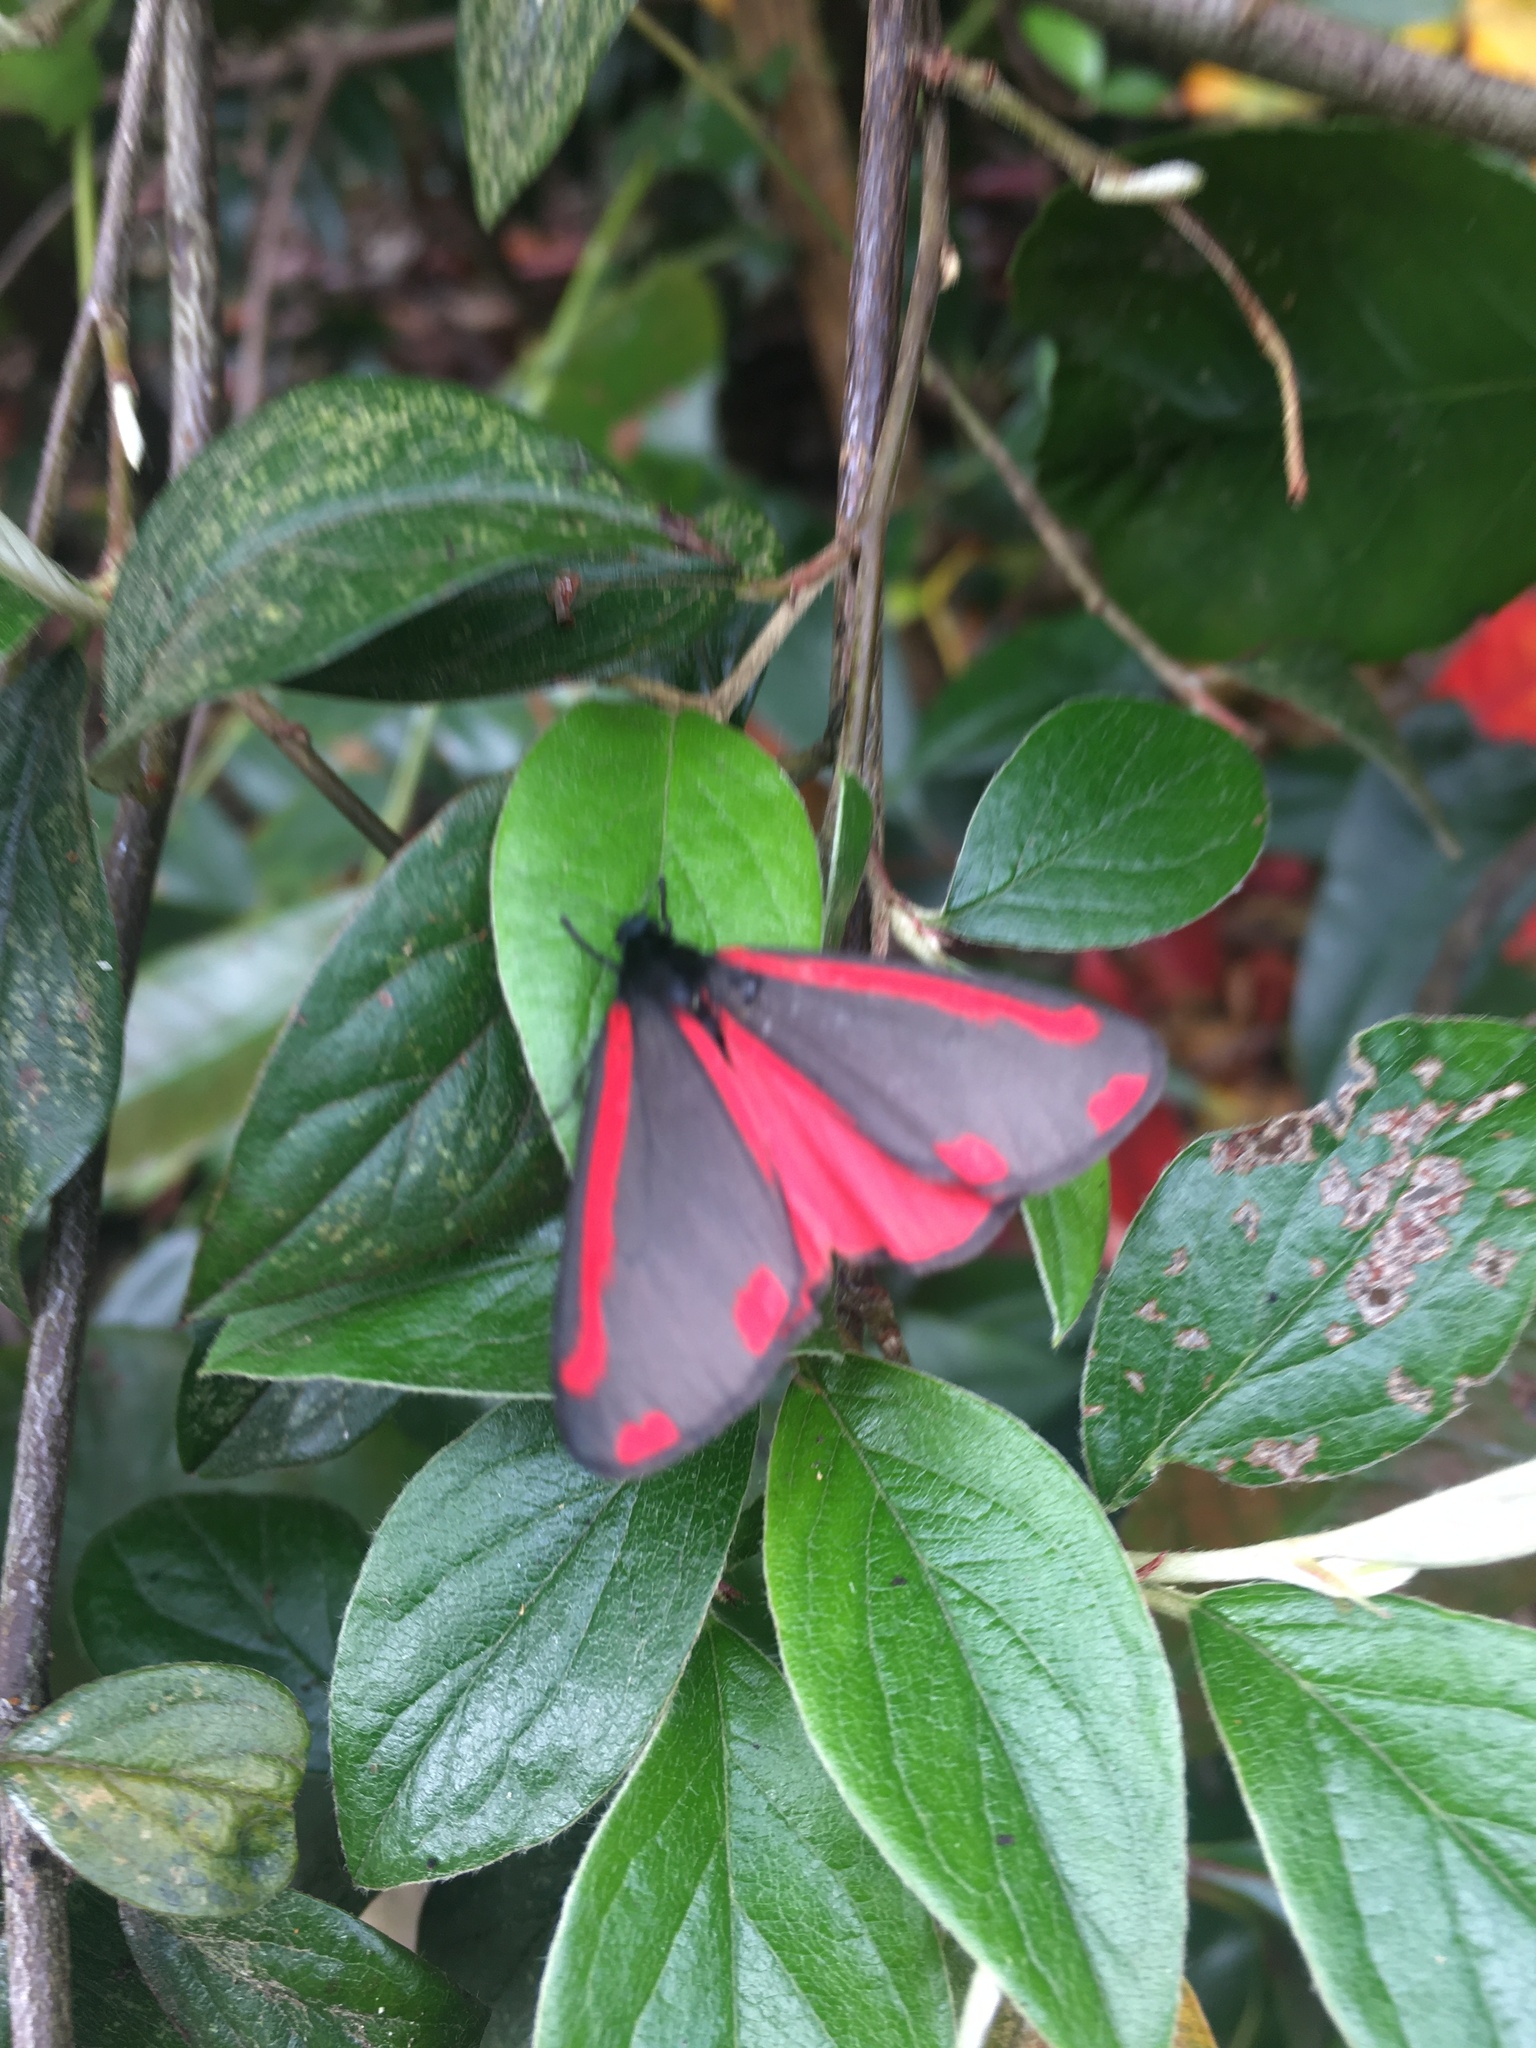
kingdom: Animalia
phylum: Arthropoda
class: Insecta
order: Lepidoptera
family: Erebidae
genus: Tyria
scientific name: Tyria jacobaeae
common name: Cinnabar
